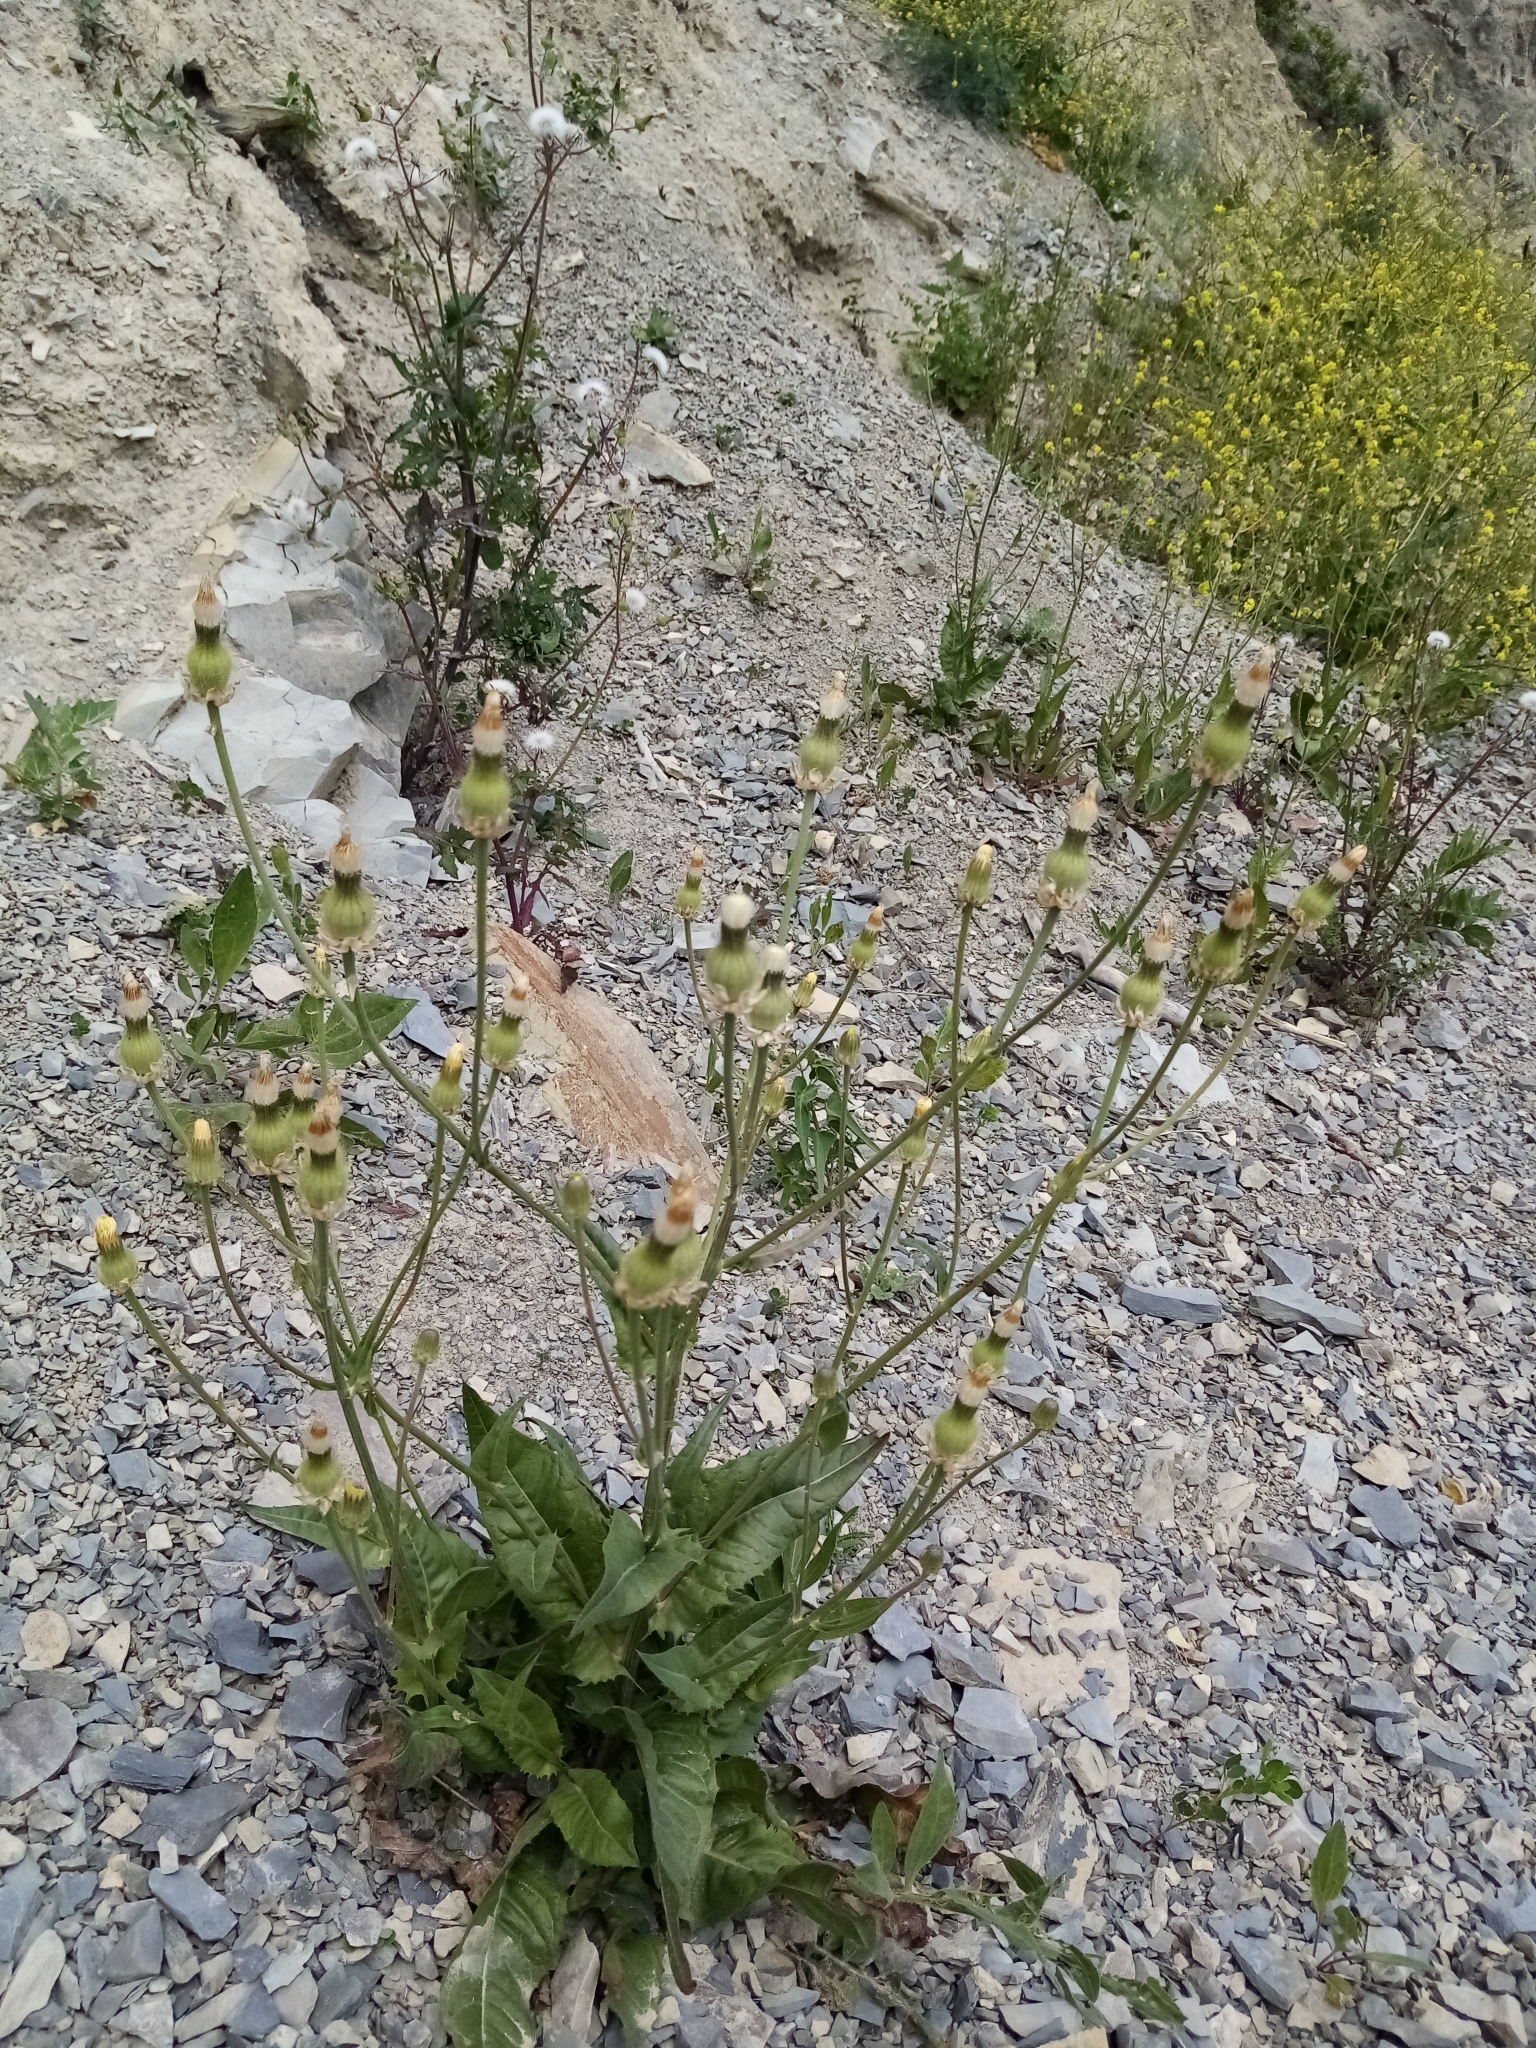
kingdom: Plantae
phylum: Tracheophyta
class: Magnoliopsida
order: Asterales
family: Asteraceae
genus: Crepis
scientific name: Crepis alpina
